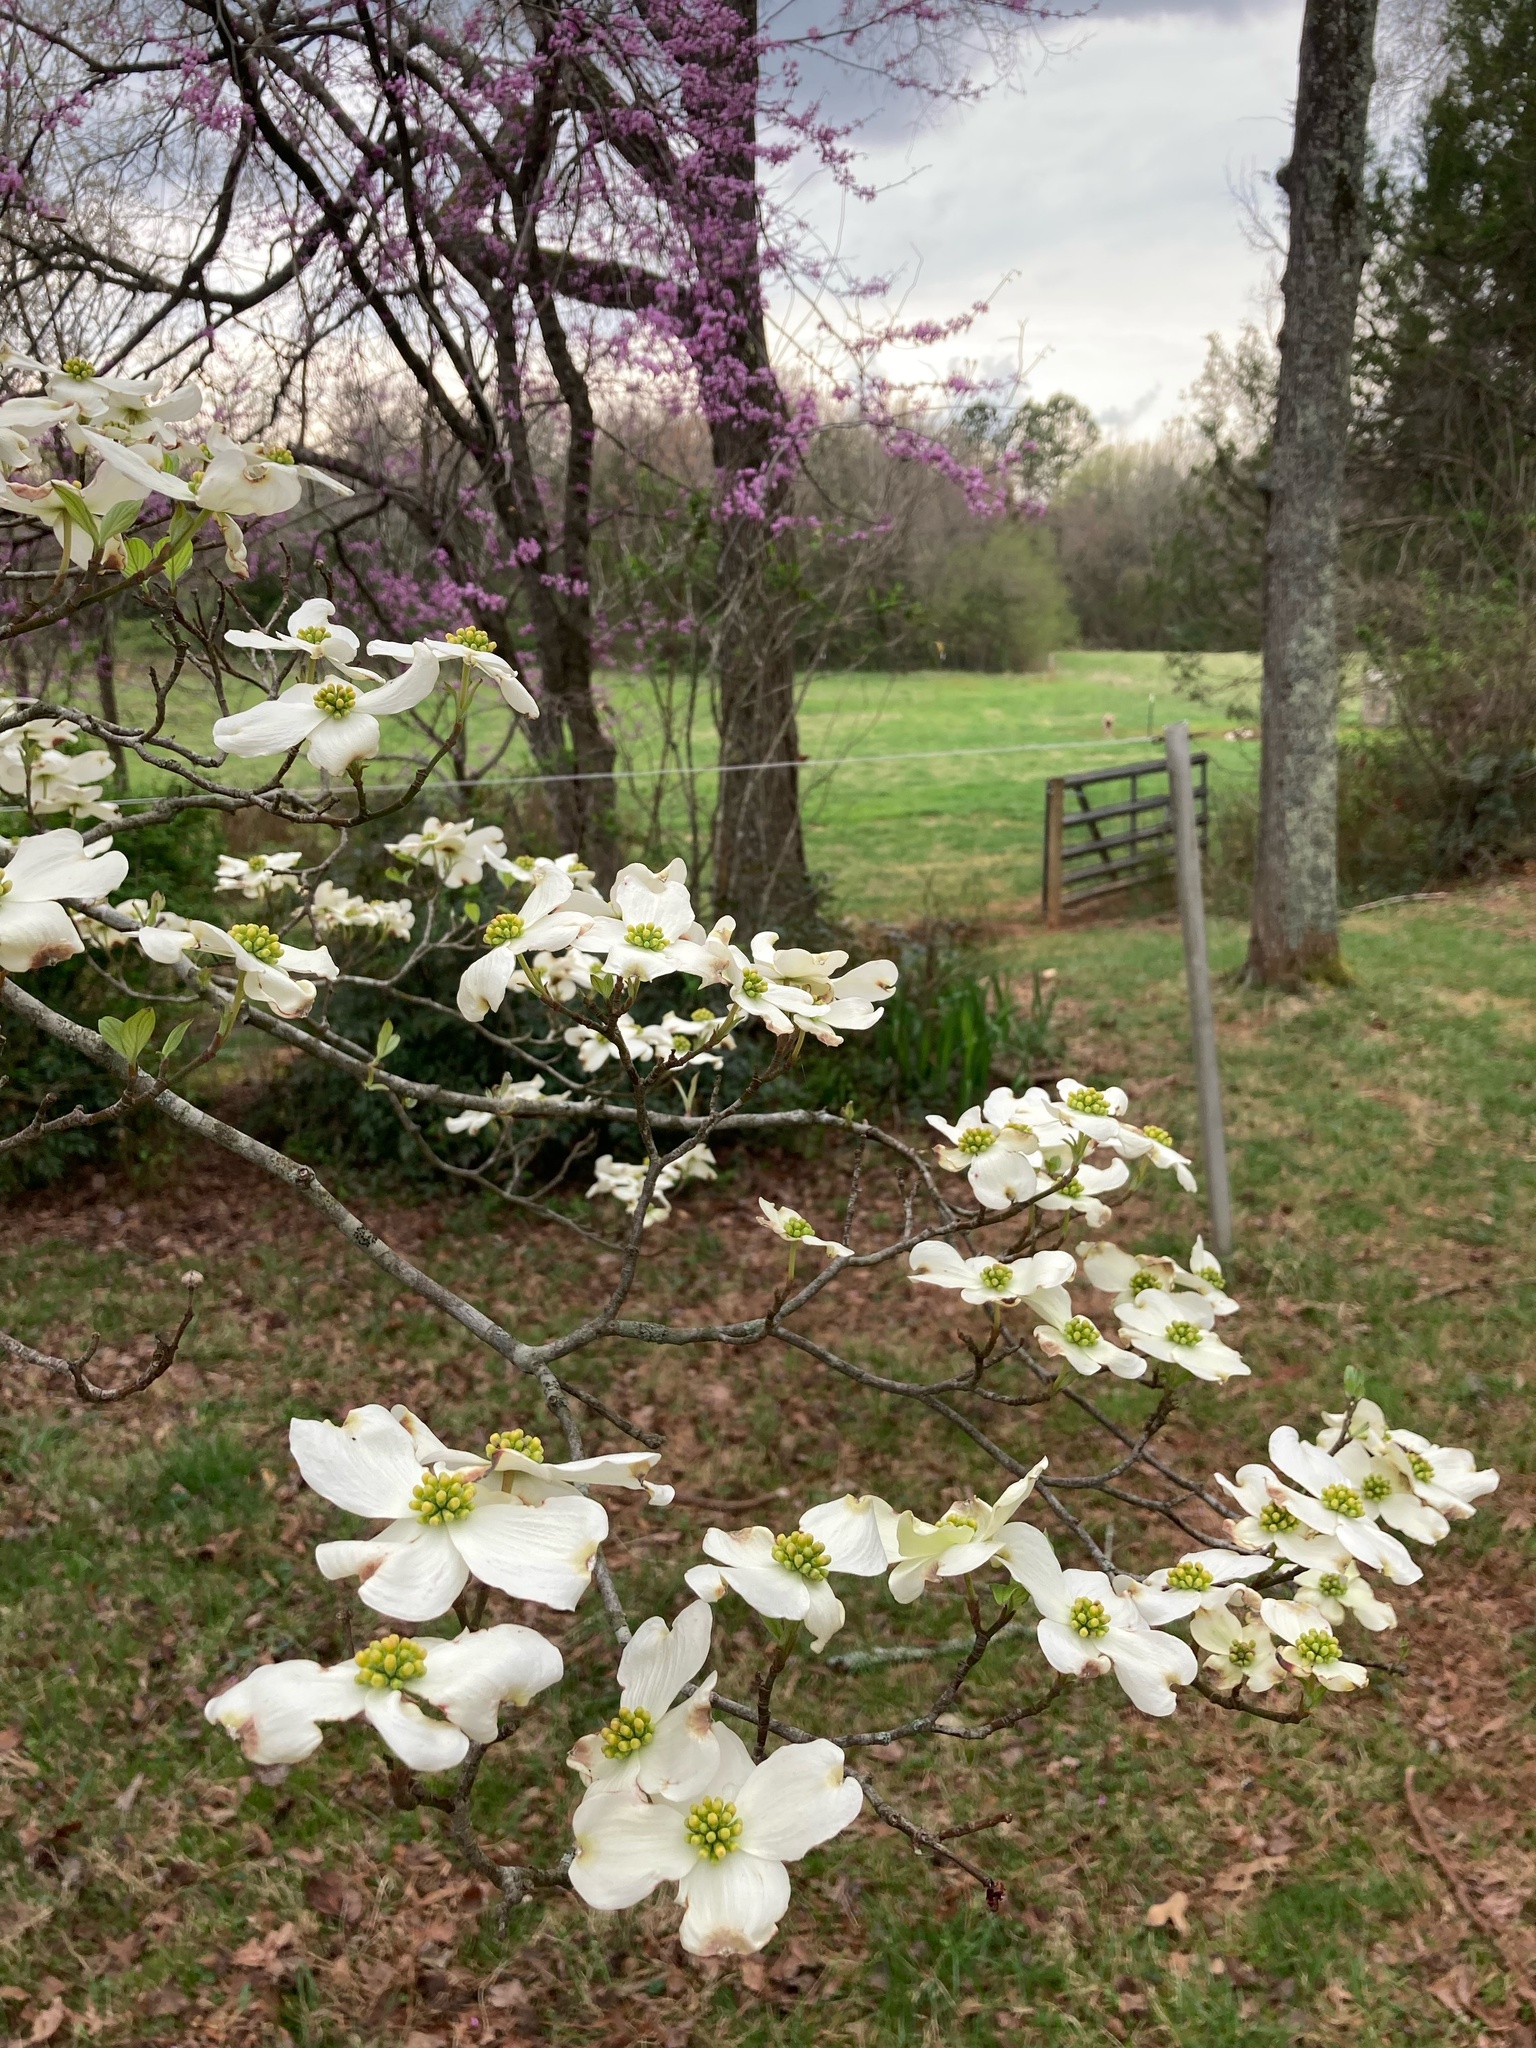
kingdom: Plantae
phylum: Tracheophyta
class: Magnoliopsida
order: Cornales
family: Cornaceae
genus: Cornus
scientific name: Cornus florida
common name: Flowering dogwood
